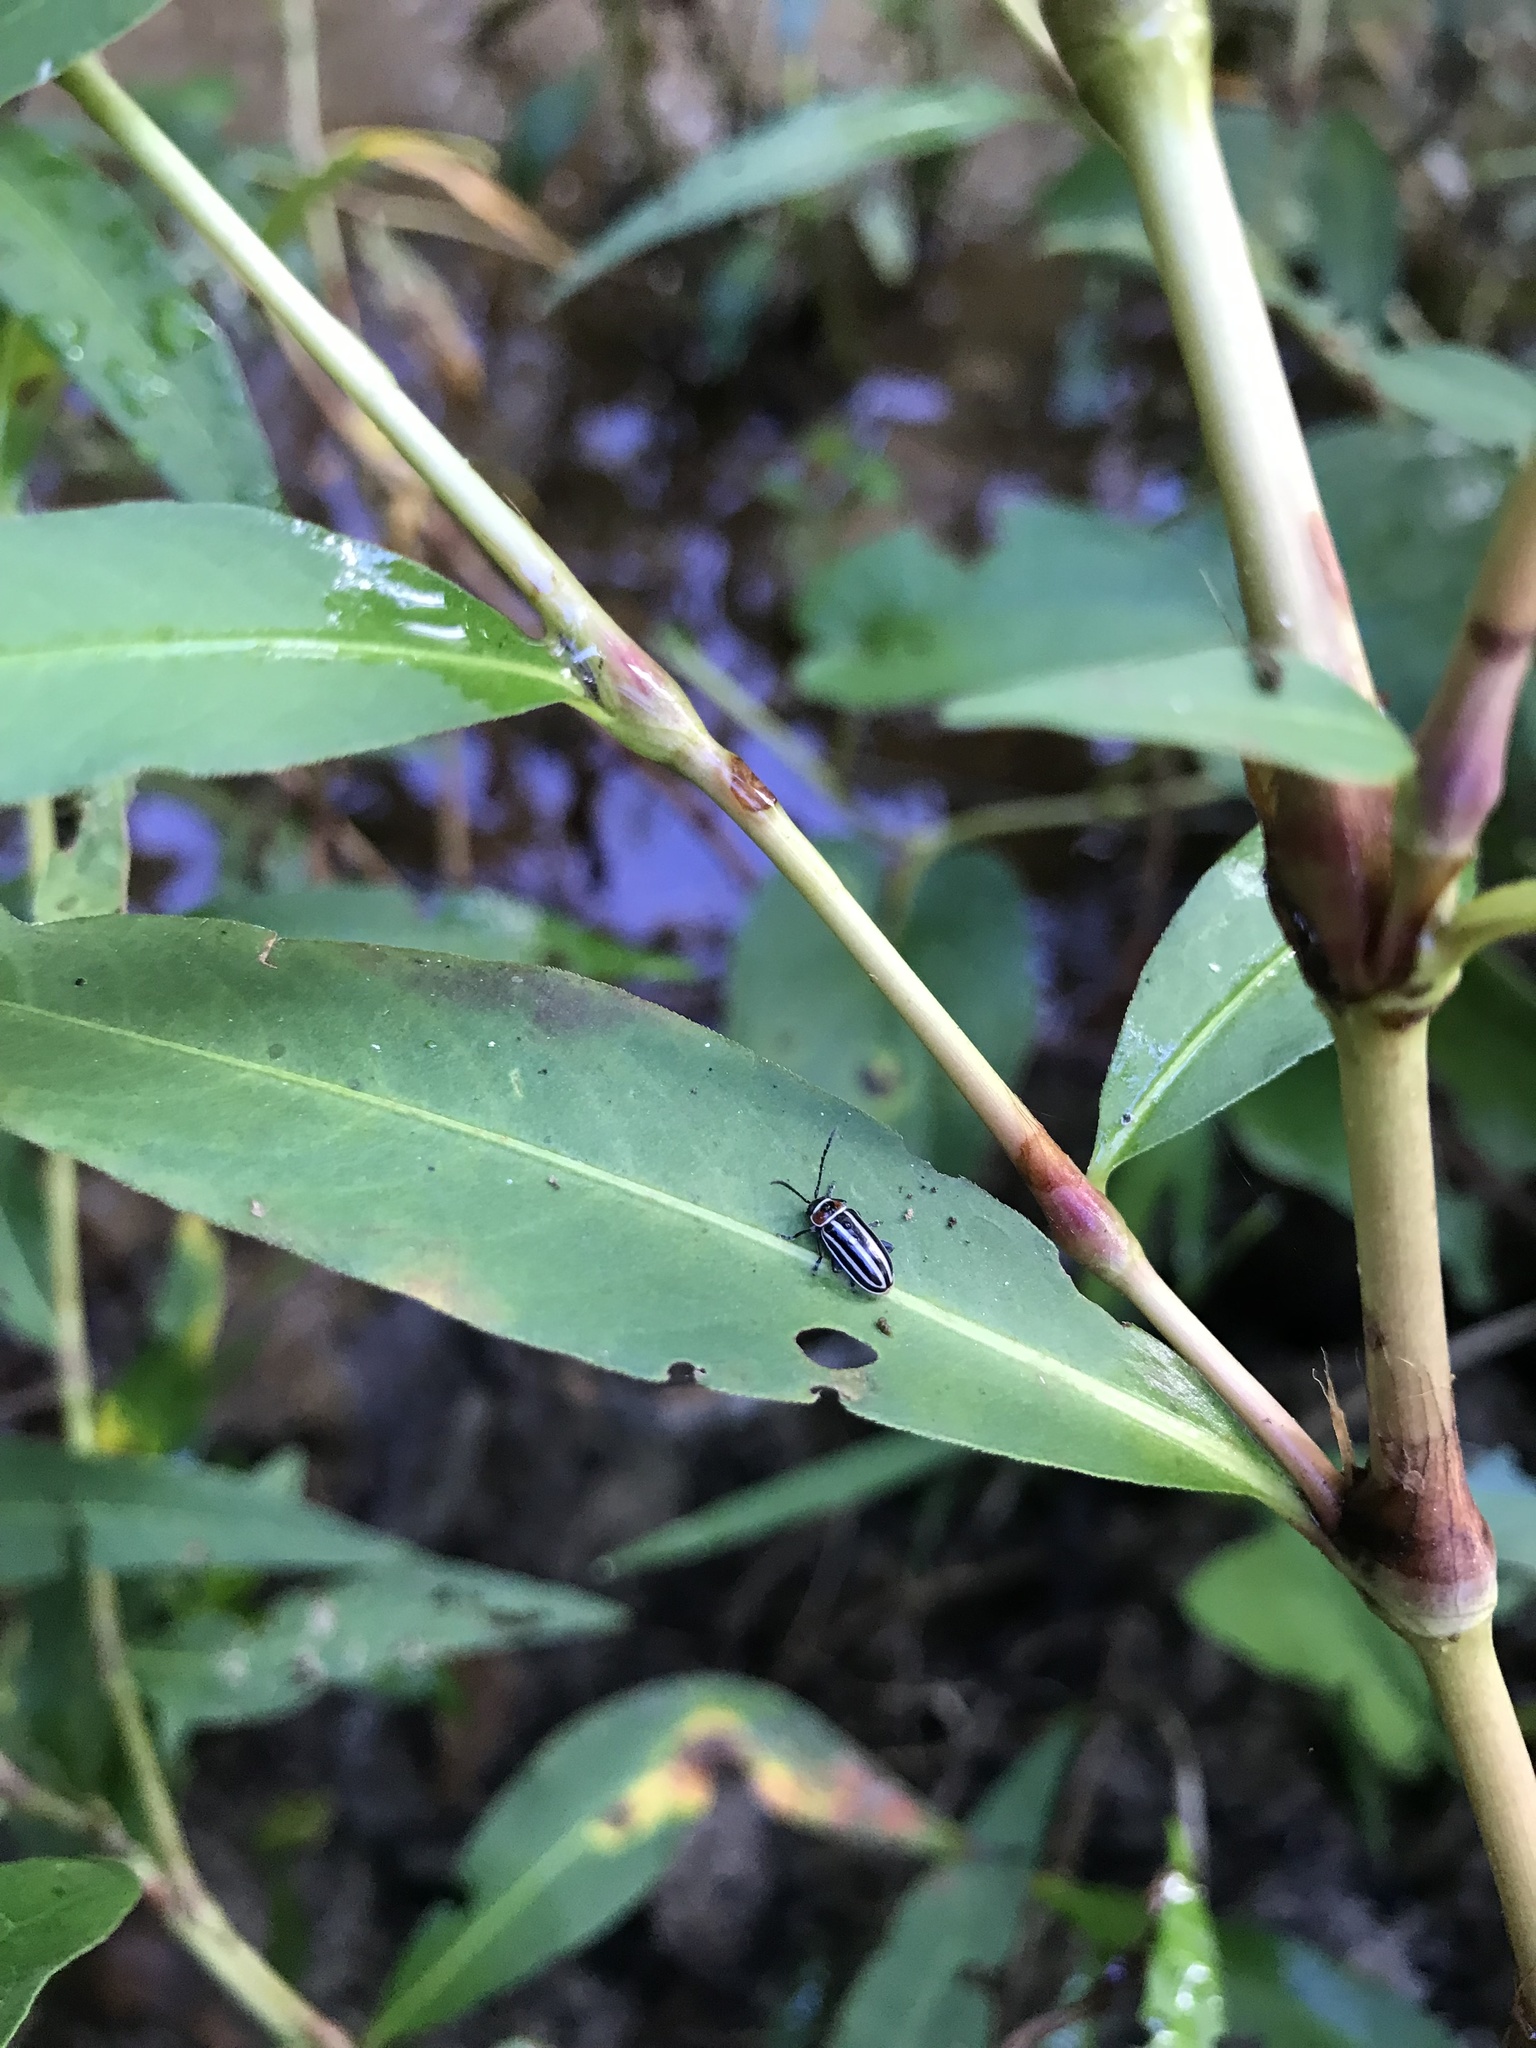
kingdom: Animalia
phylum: Arthropoda
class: Insecta
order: Coleoptera
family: Chrysomelidae
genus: Disonycha
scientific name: Disonycha pensylvanica
